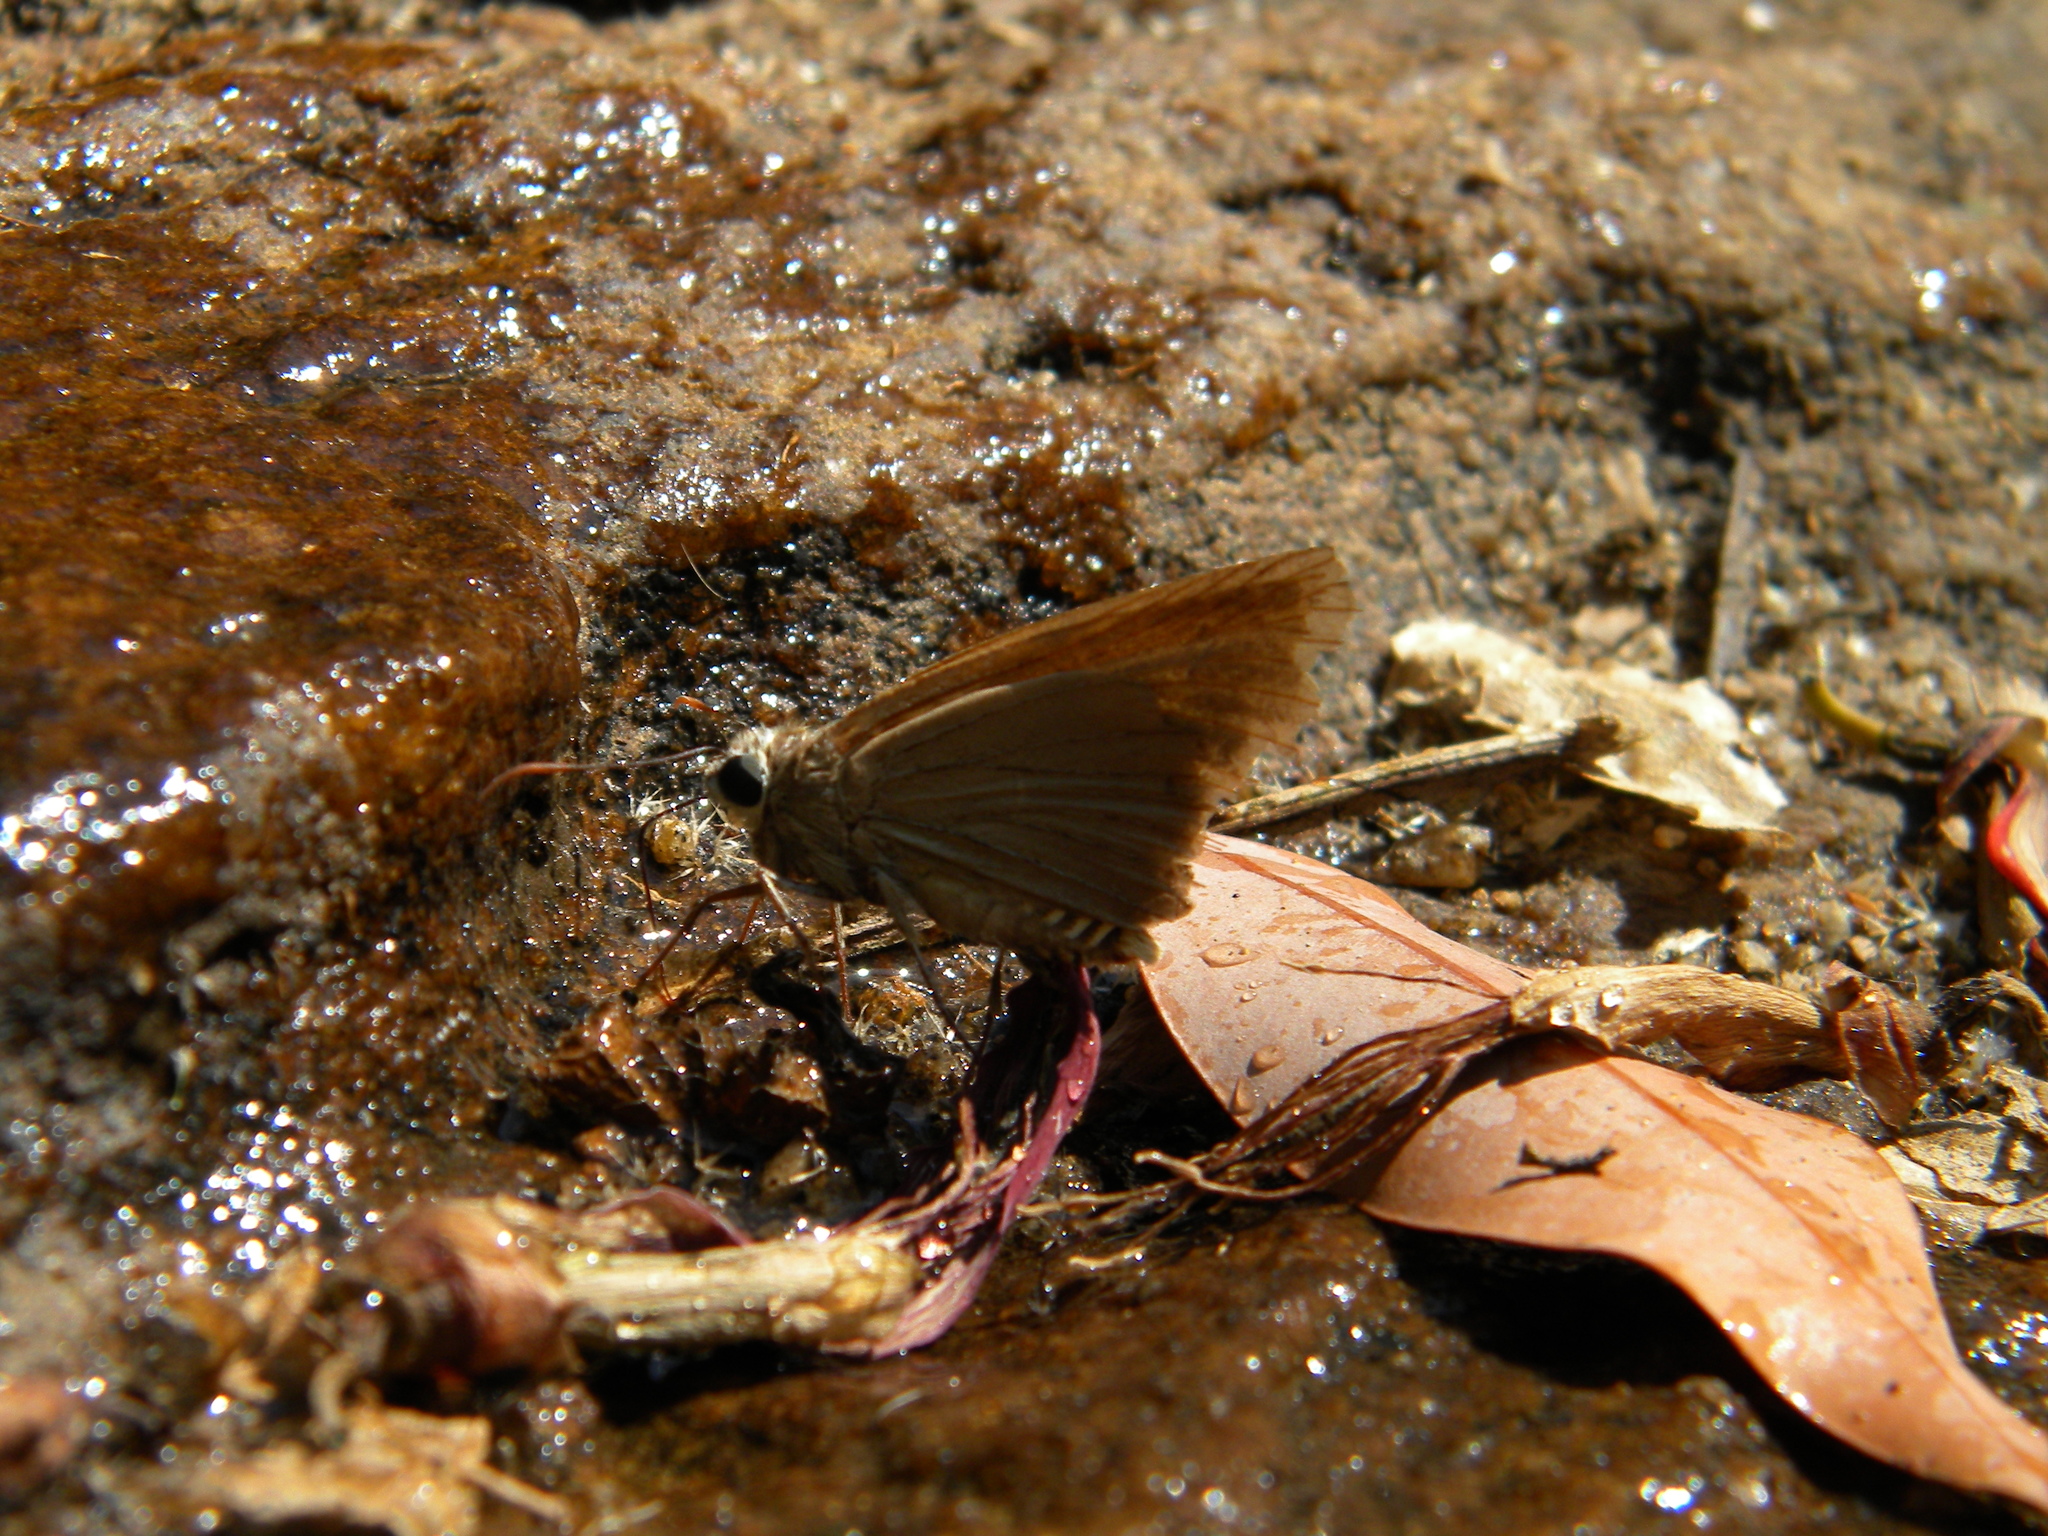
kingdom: Animalia
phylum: Arthropoda
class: Insecta
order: Lepidoptera
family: Hesperiidae
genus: Badamia
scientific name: Badamia exclamationis
